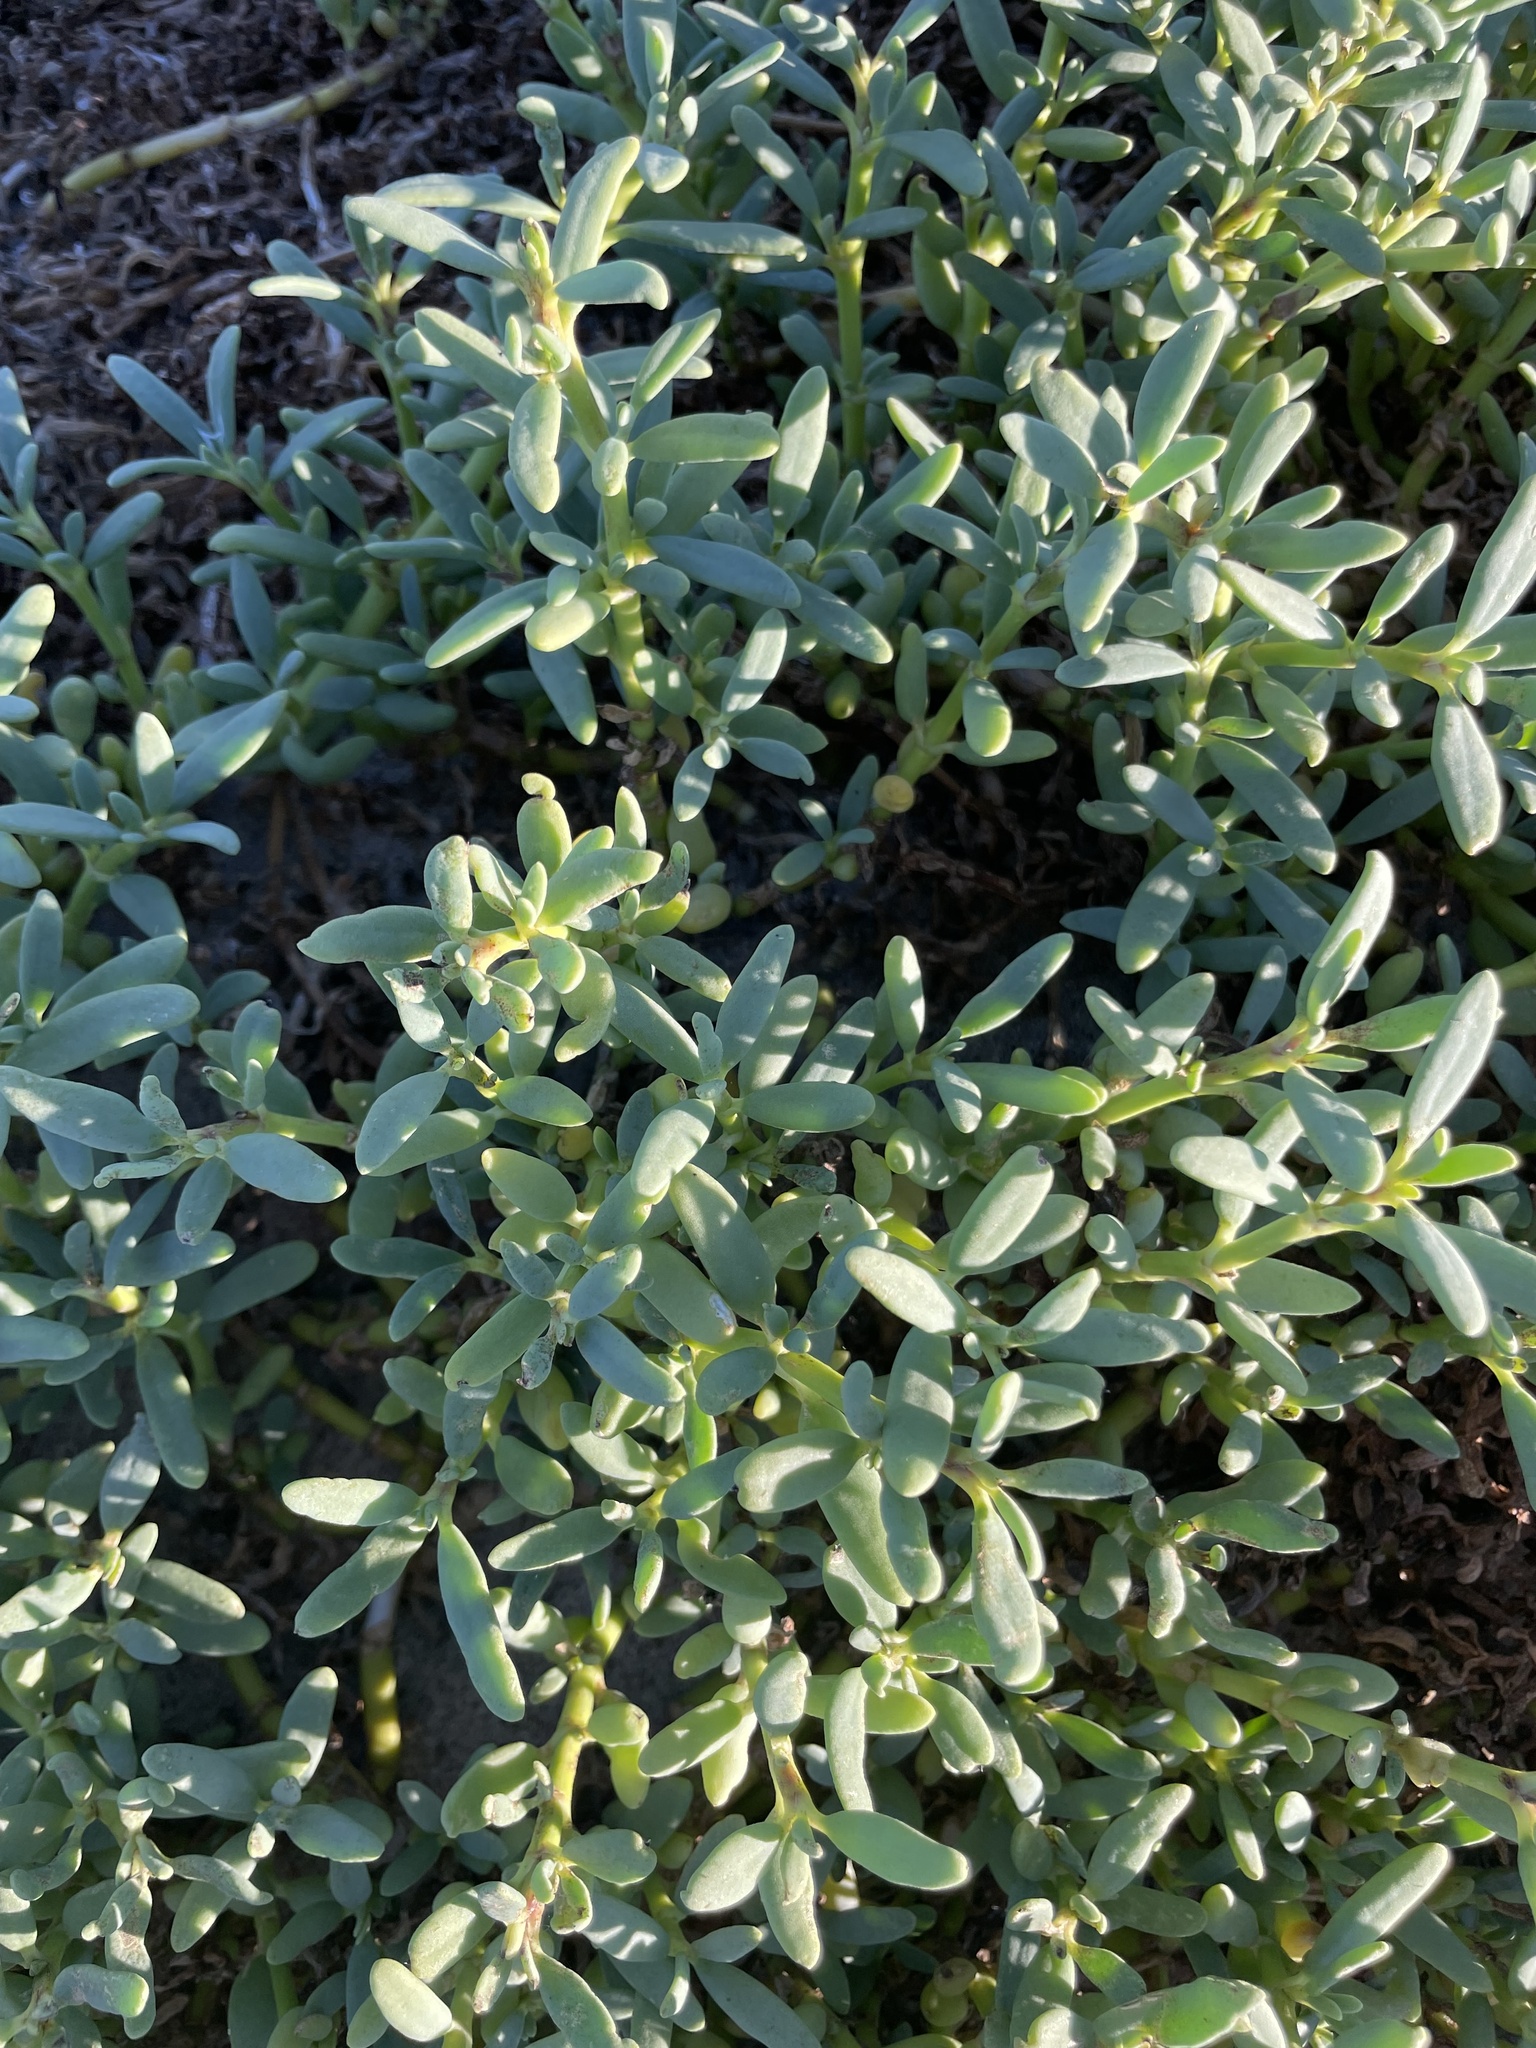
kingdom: Plantae
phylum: Tracheophyta
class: Magnoliopsida
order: Caryophyllales
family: Aizoaceae
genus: Sesuvium
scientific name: Sesuvium portulacastrum
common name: Sea-purslane
